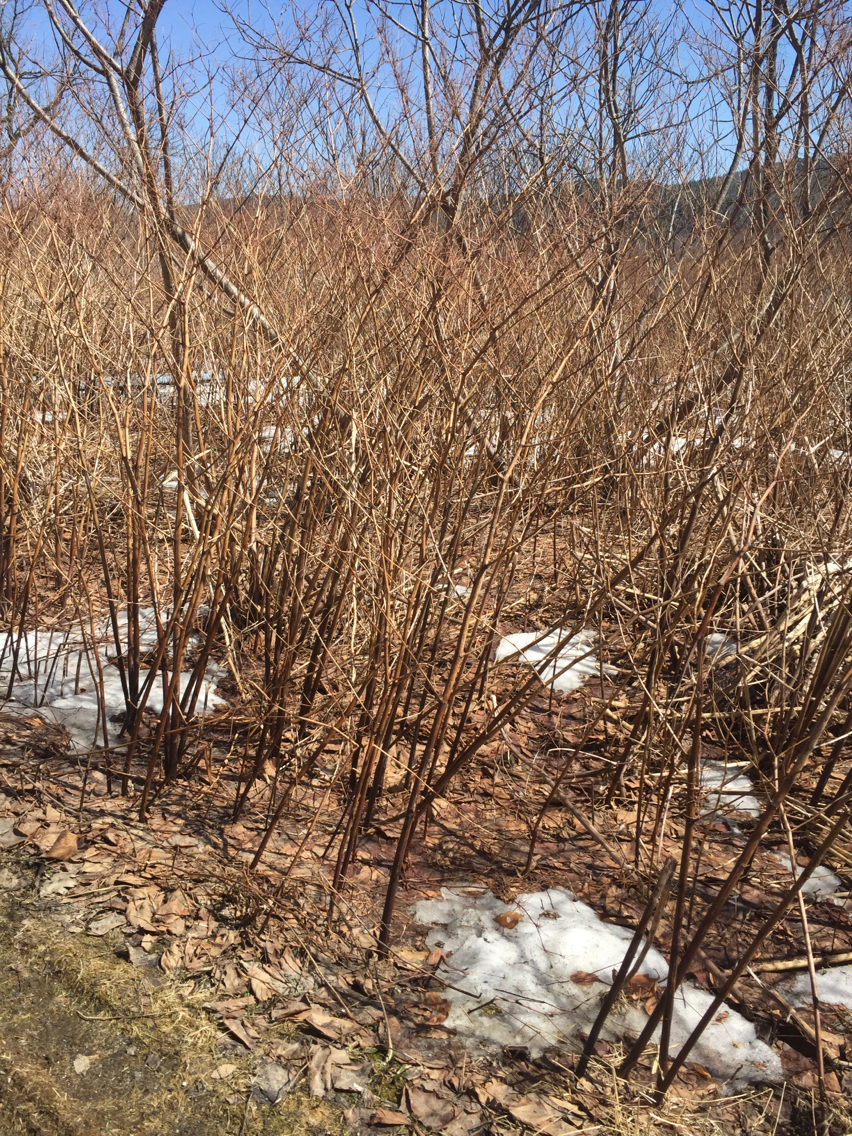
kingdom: Plantae
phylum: Tracheophyta
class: Magnoliopsida
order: Caryophyllales
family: Polygonaceae
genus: Reynoutria
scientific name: Reynoutria japonica
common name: Japanese knotweed
